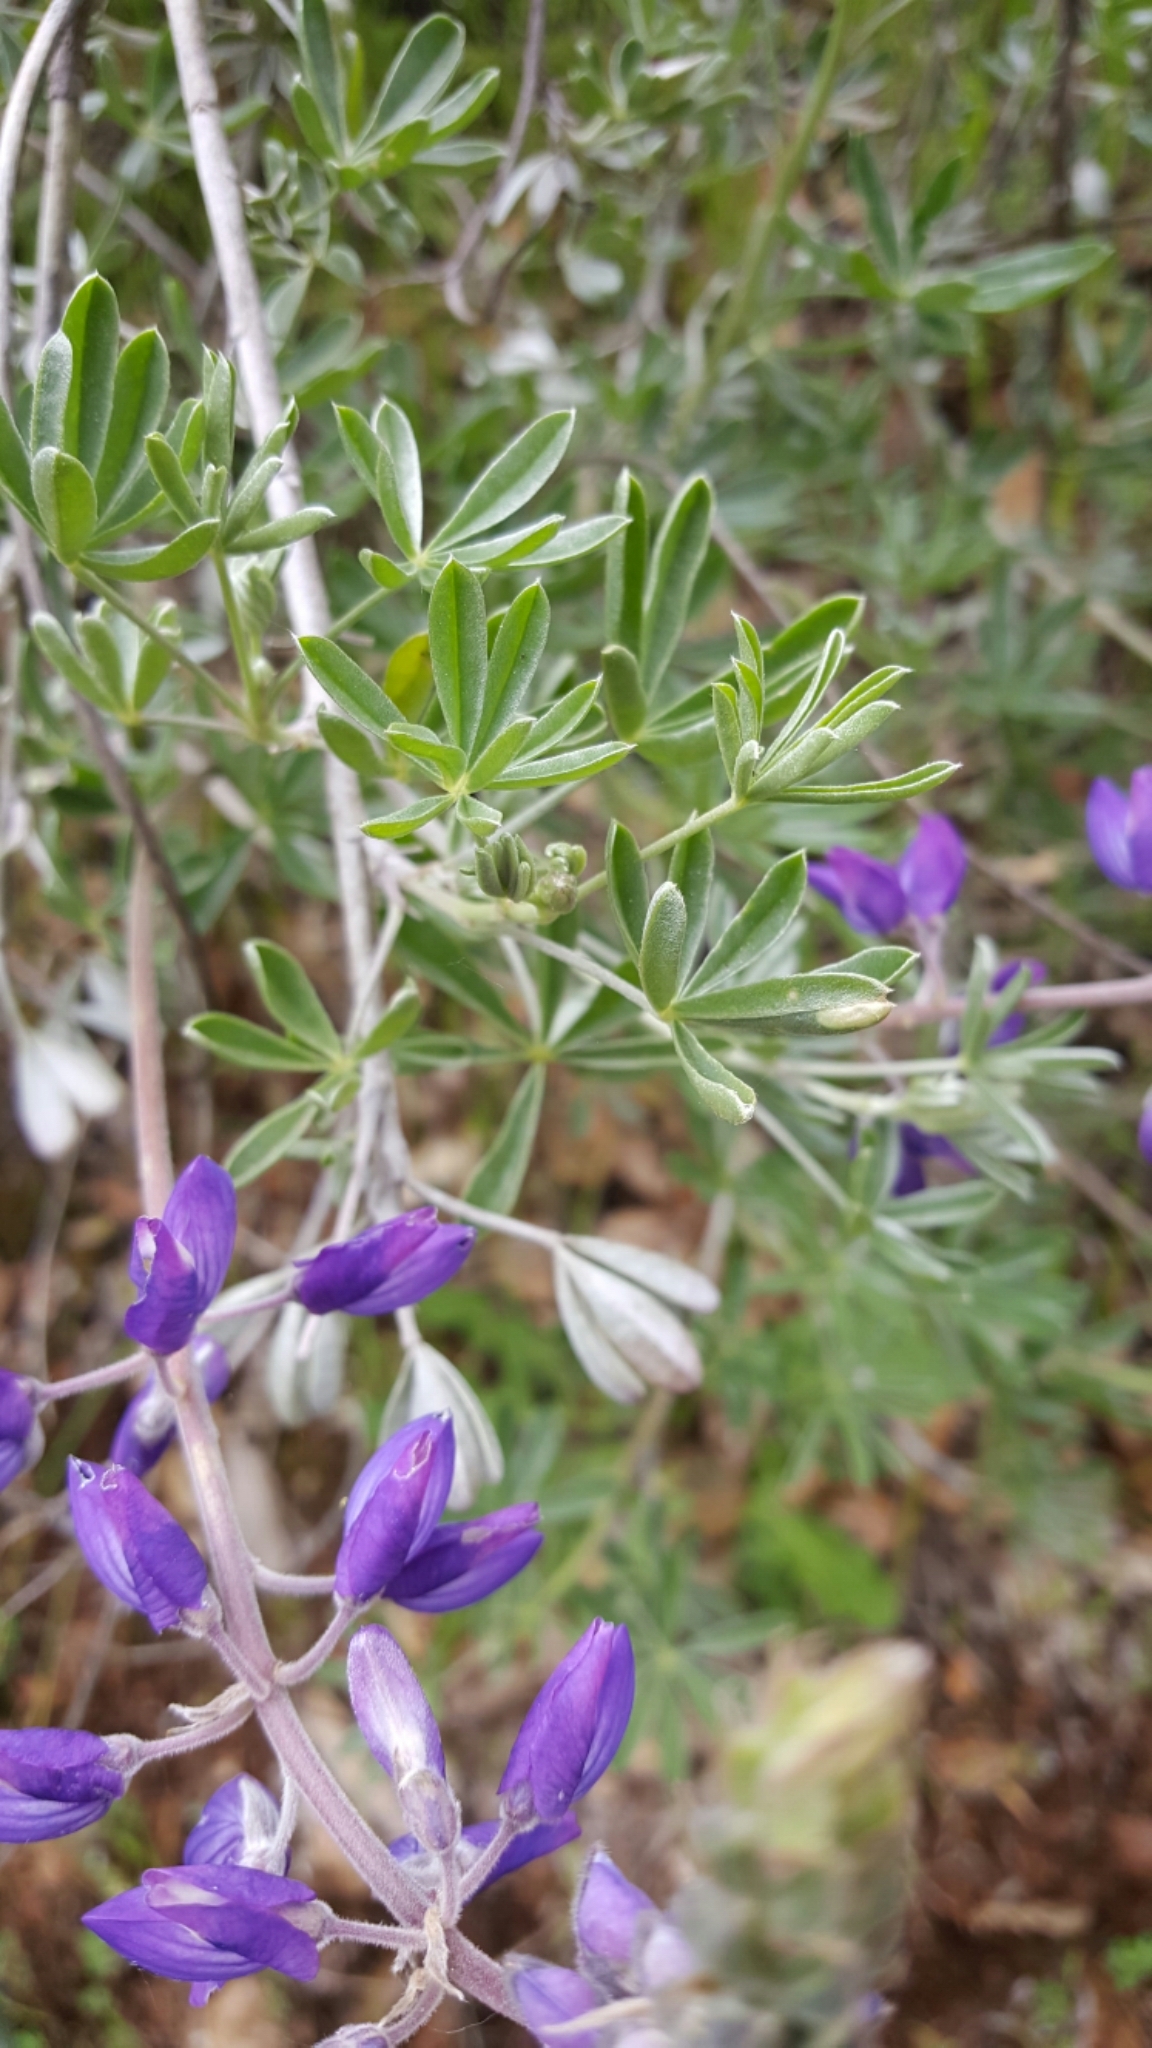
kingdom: Plantae
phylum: Tracheophyta
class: Magnoliopsida
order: Fabales
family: Fabaceae
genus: Lupinus
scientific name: Lupinus albifrons
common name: Foothill lupine
